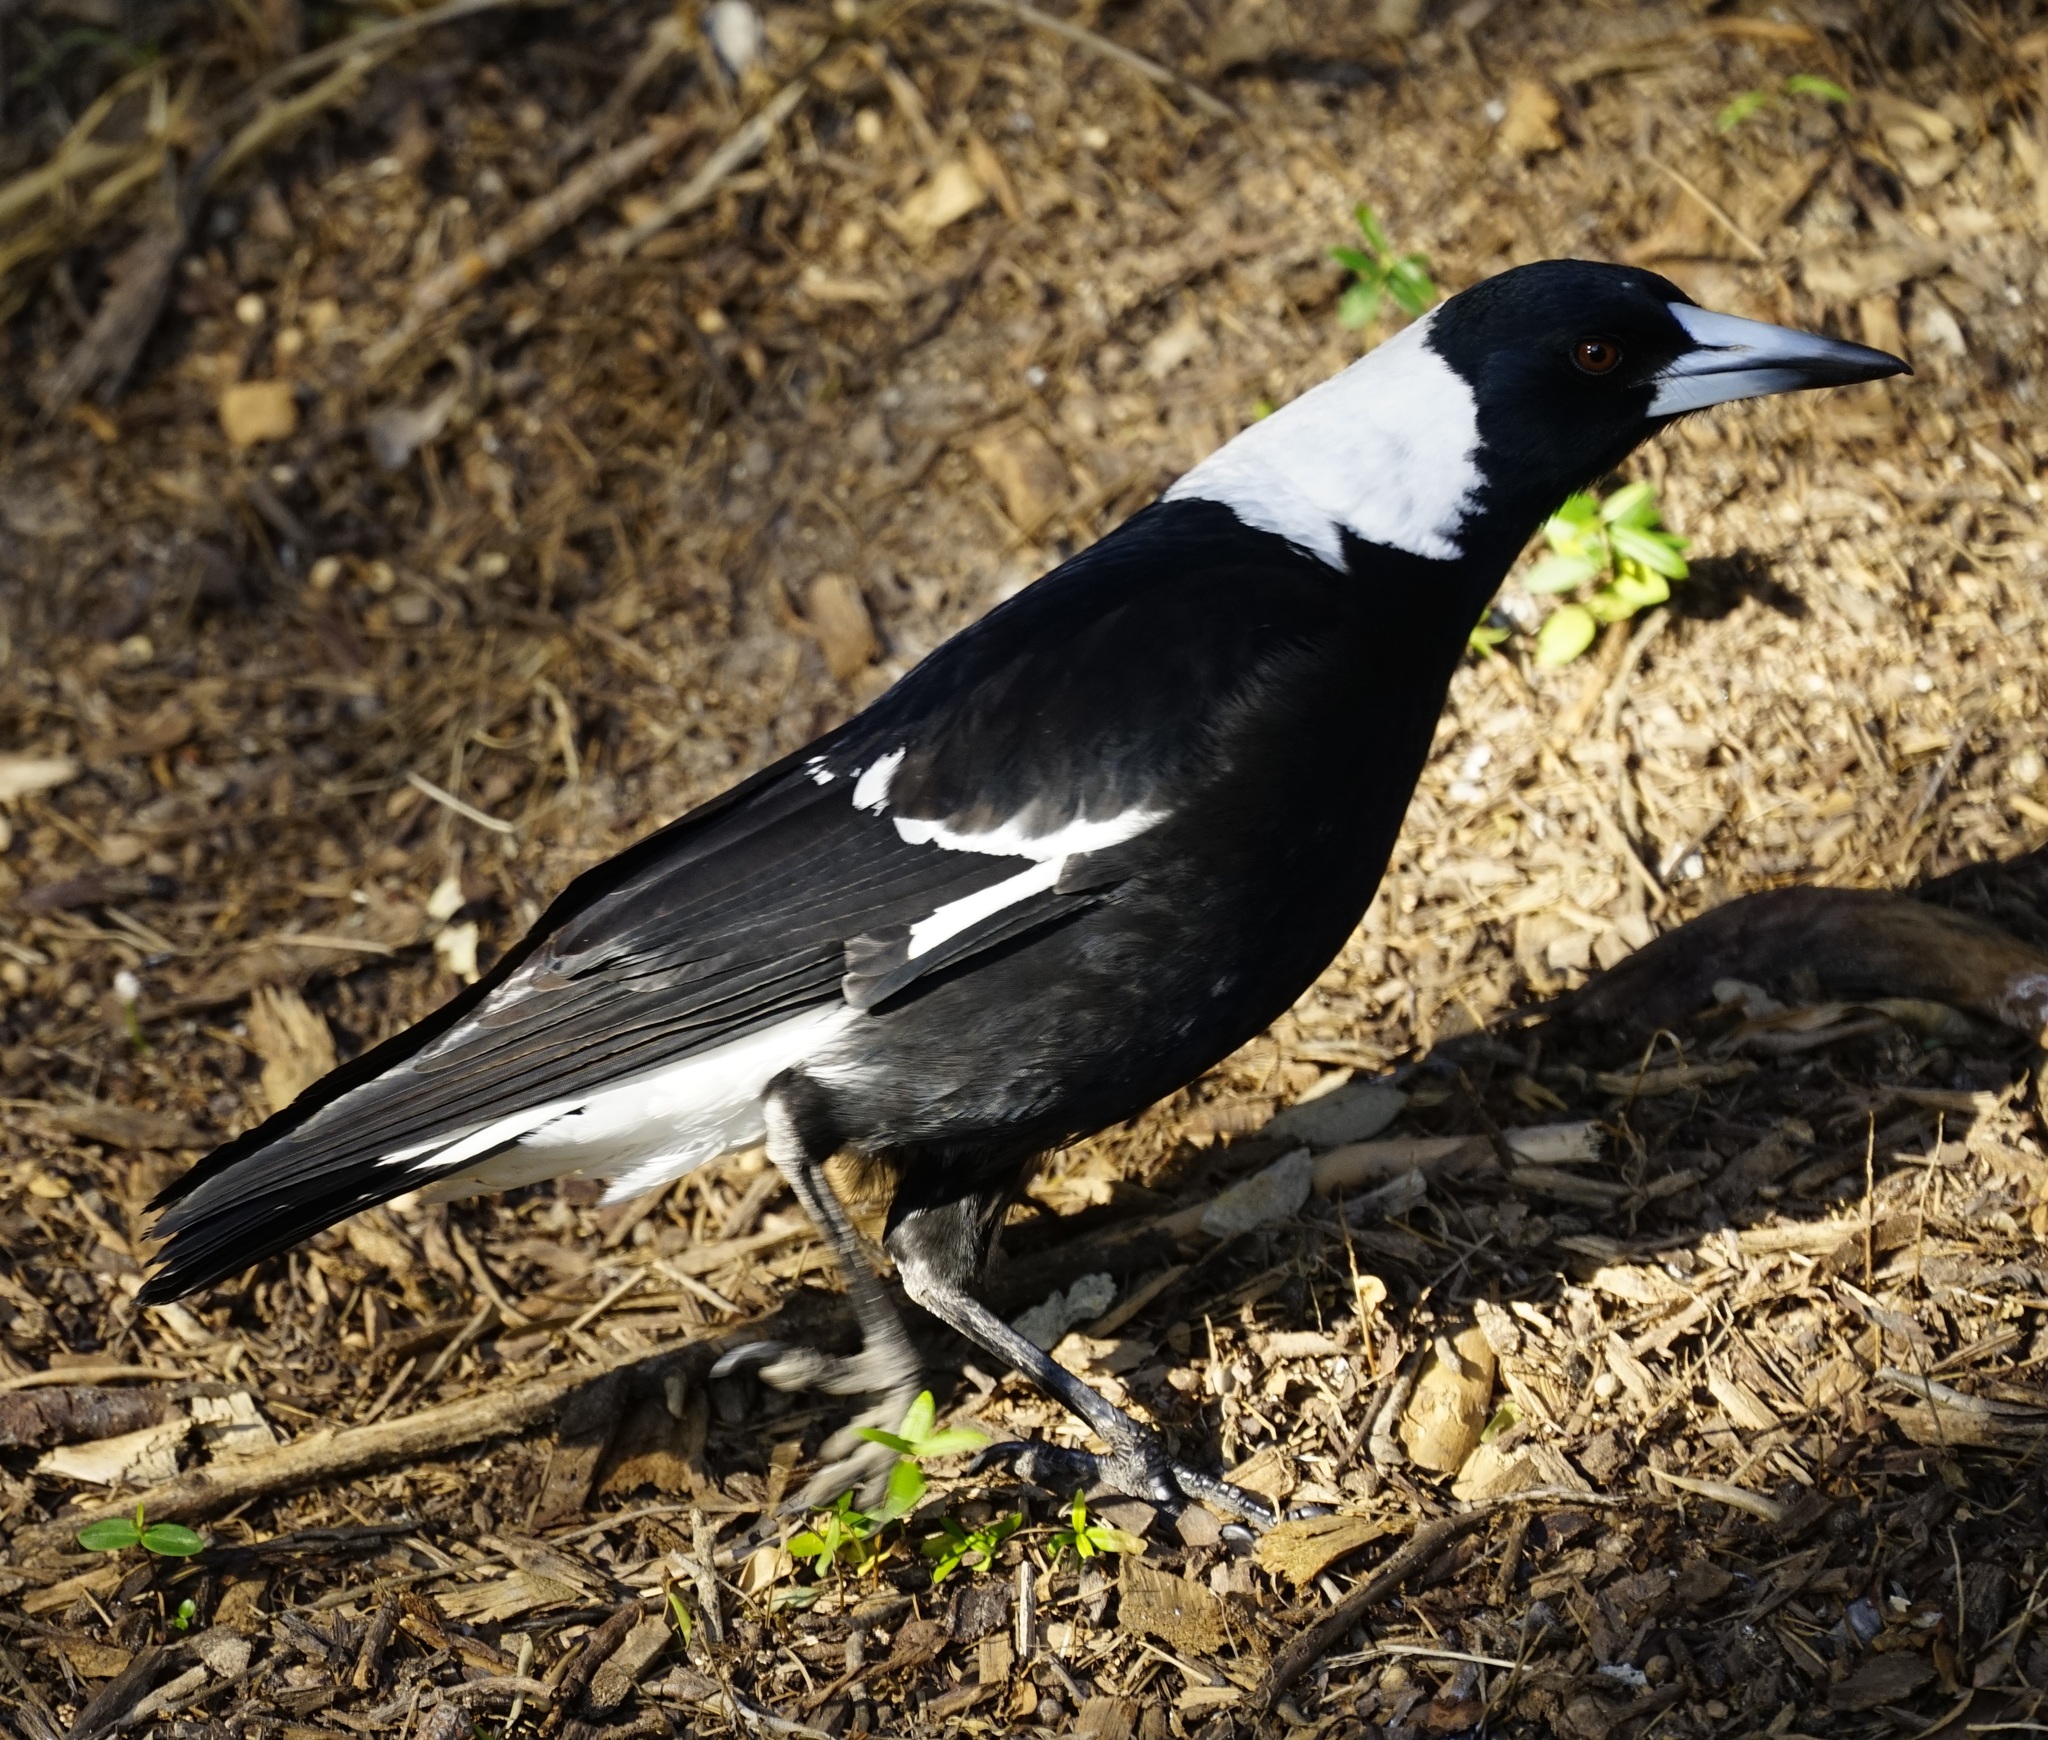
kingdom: Animalia
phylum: Chordata
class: Aves
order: Passeriformes
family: Cracticidae
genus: Gymnorhina
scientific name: Gymnorhina tibicen
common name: Australian magpie
